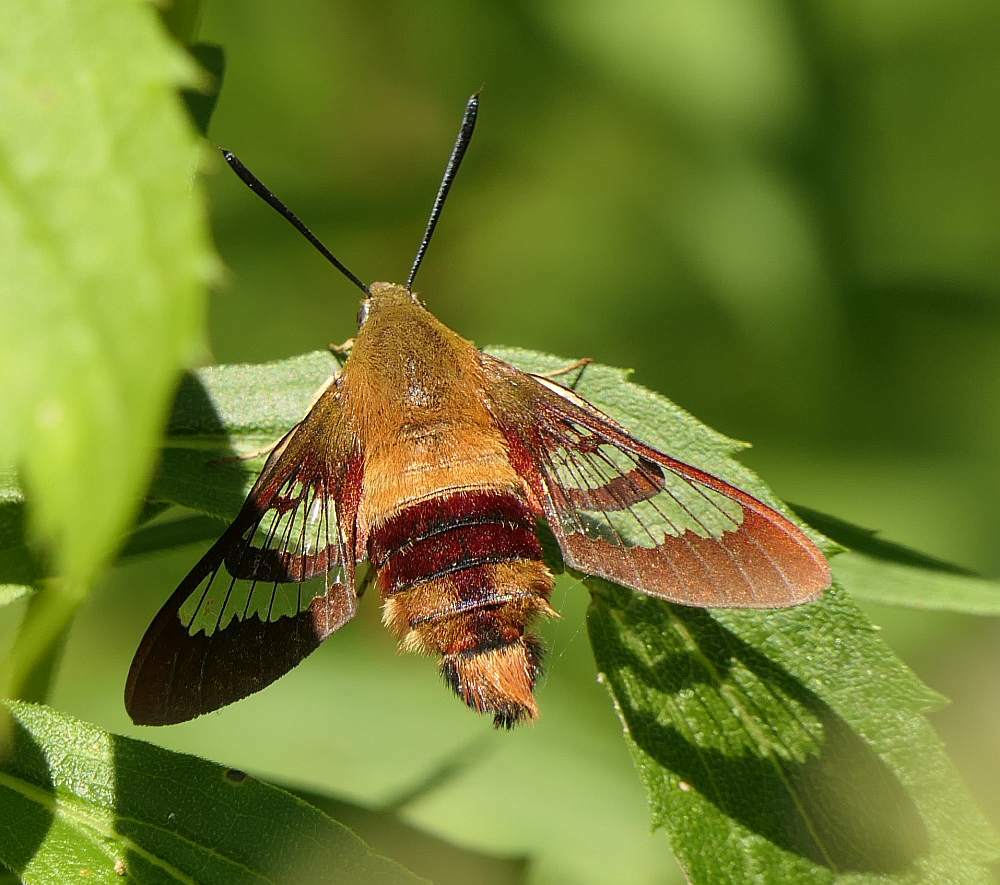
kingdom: Animalia
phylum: Arthropoda
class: Insecta
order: Lepidoptera
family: Sphingidae
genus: Hemaris
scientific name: Hemaris thysbe
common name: Common clear-wing
